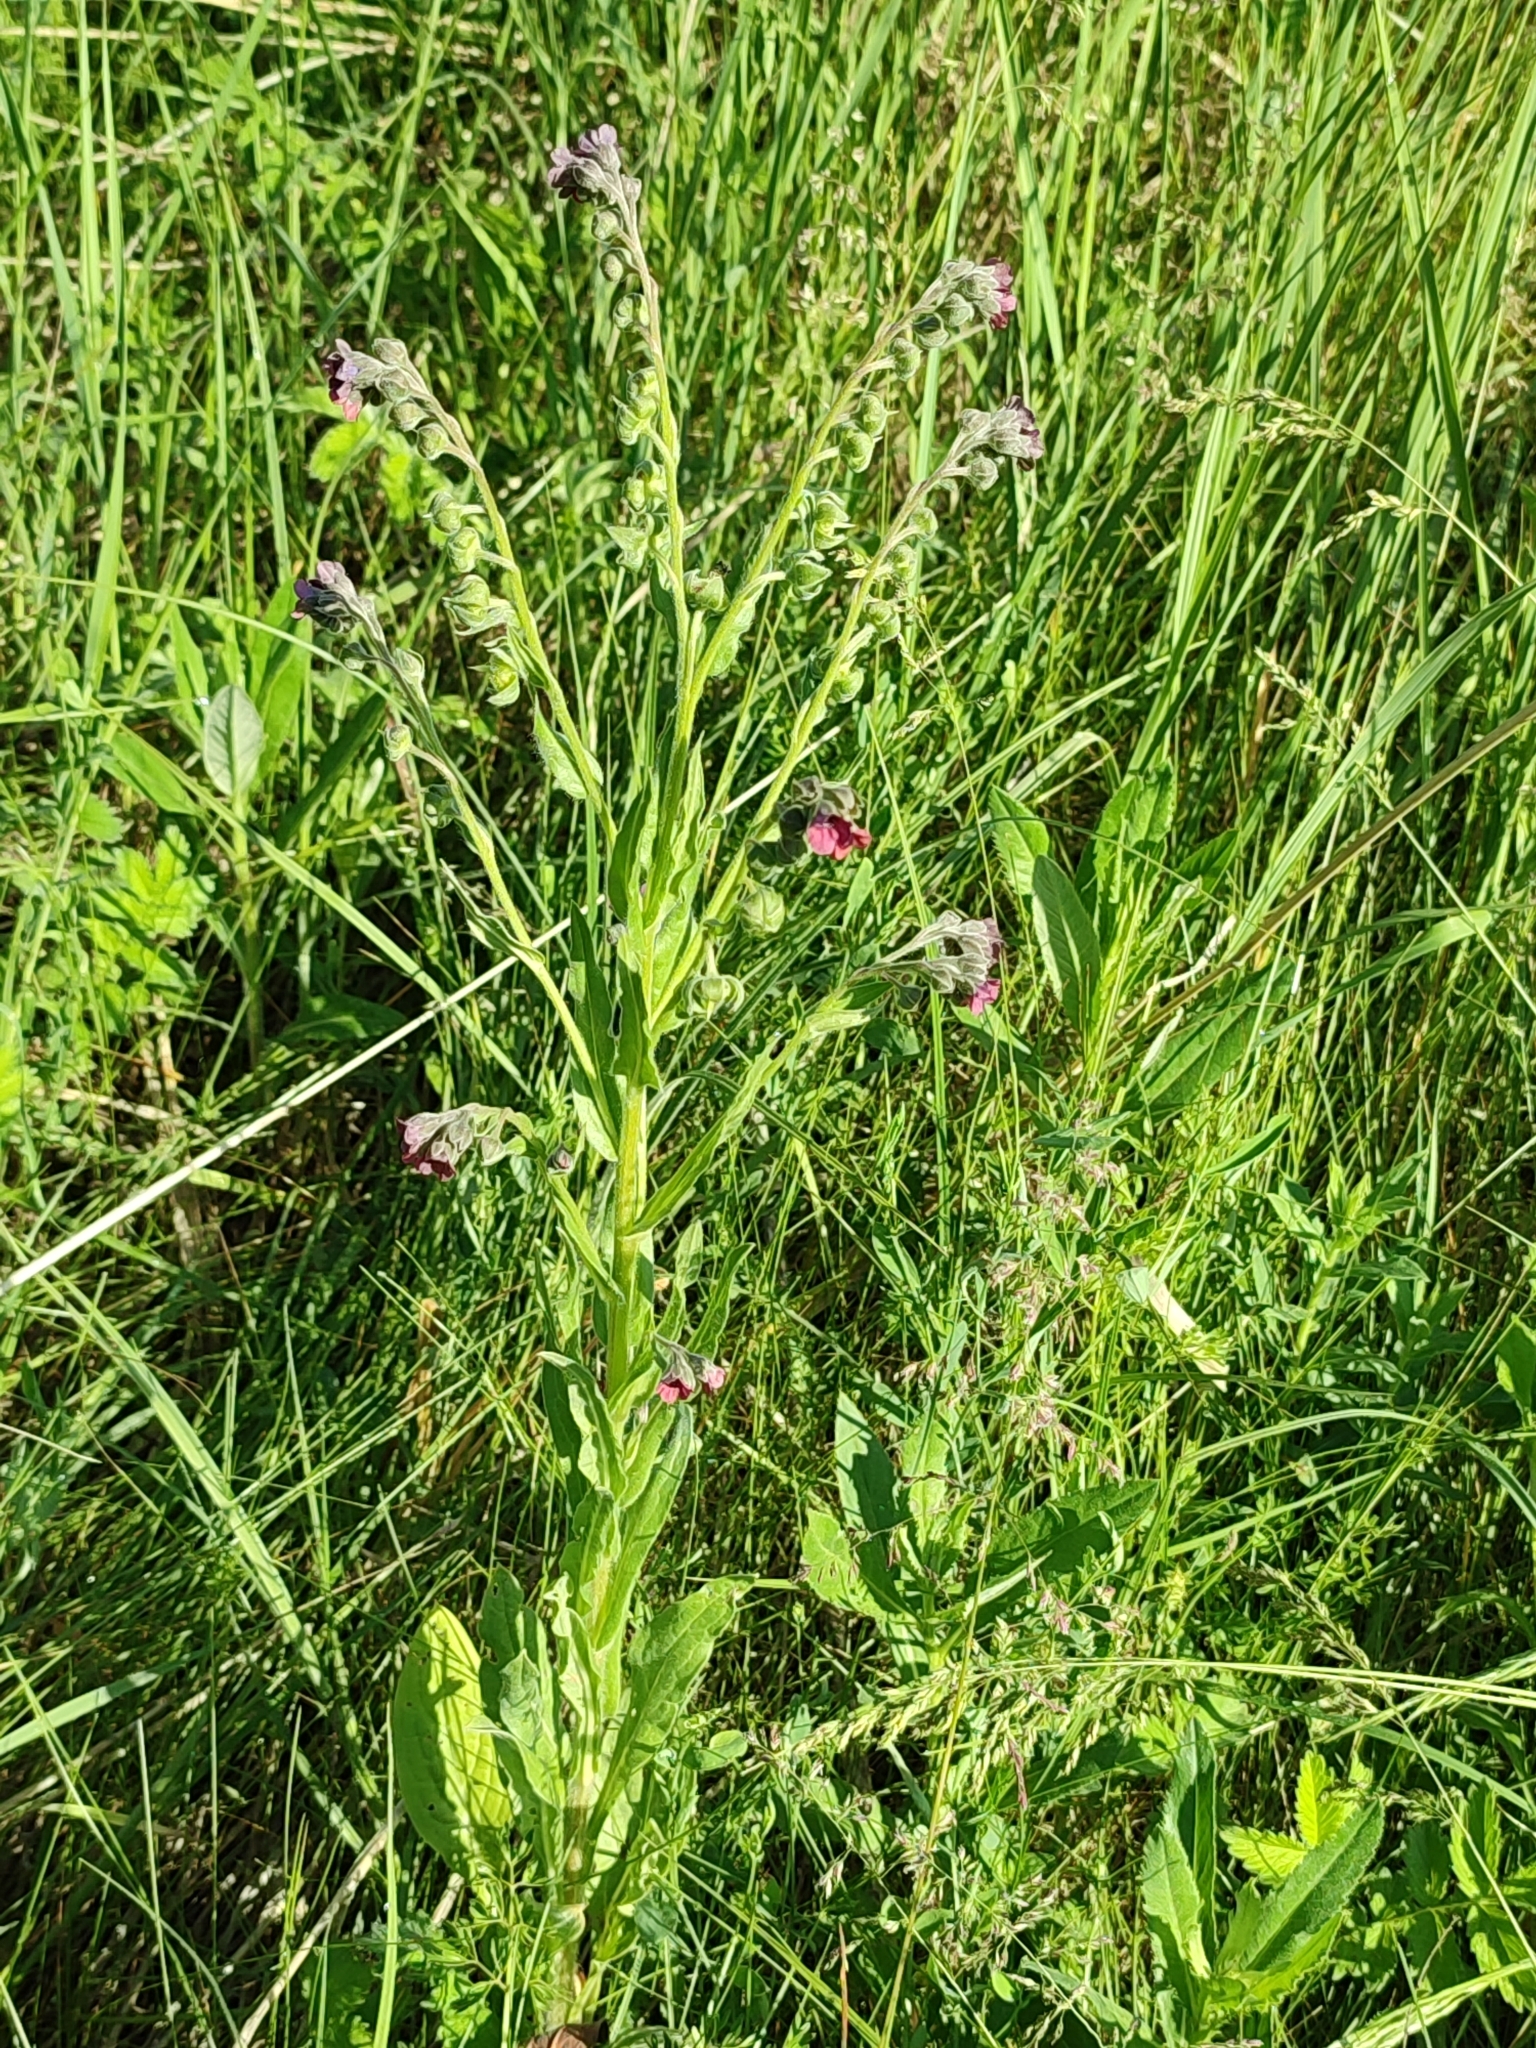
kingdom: Plantae
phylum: Tracheophyta
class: Magnoliopsida
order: Boraginales
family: Boraginaceae
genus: Cynoglossum
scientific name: Cynoglossum officinale
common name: Hound's-tongue
